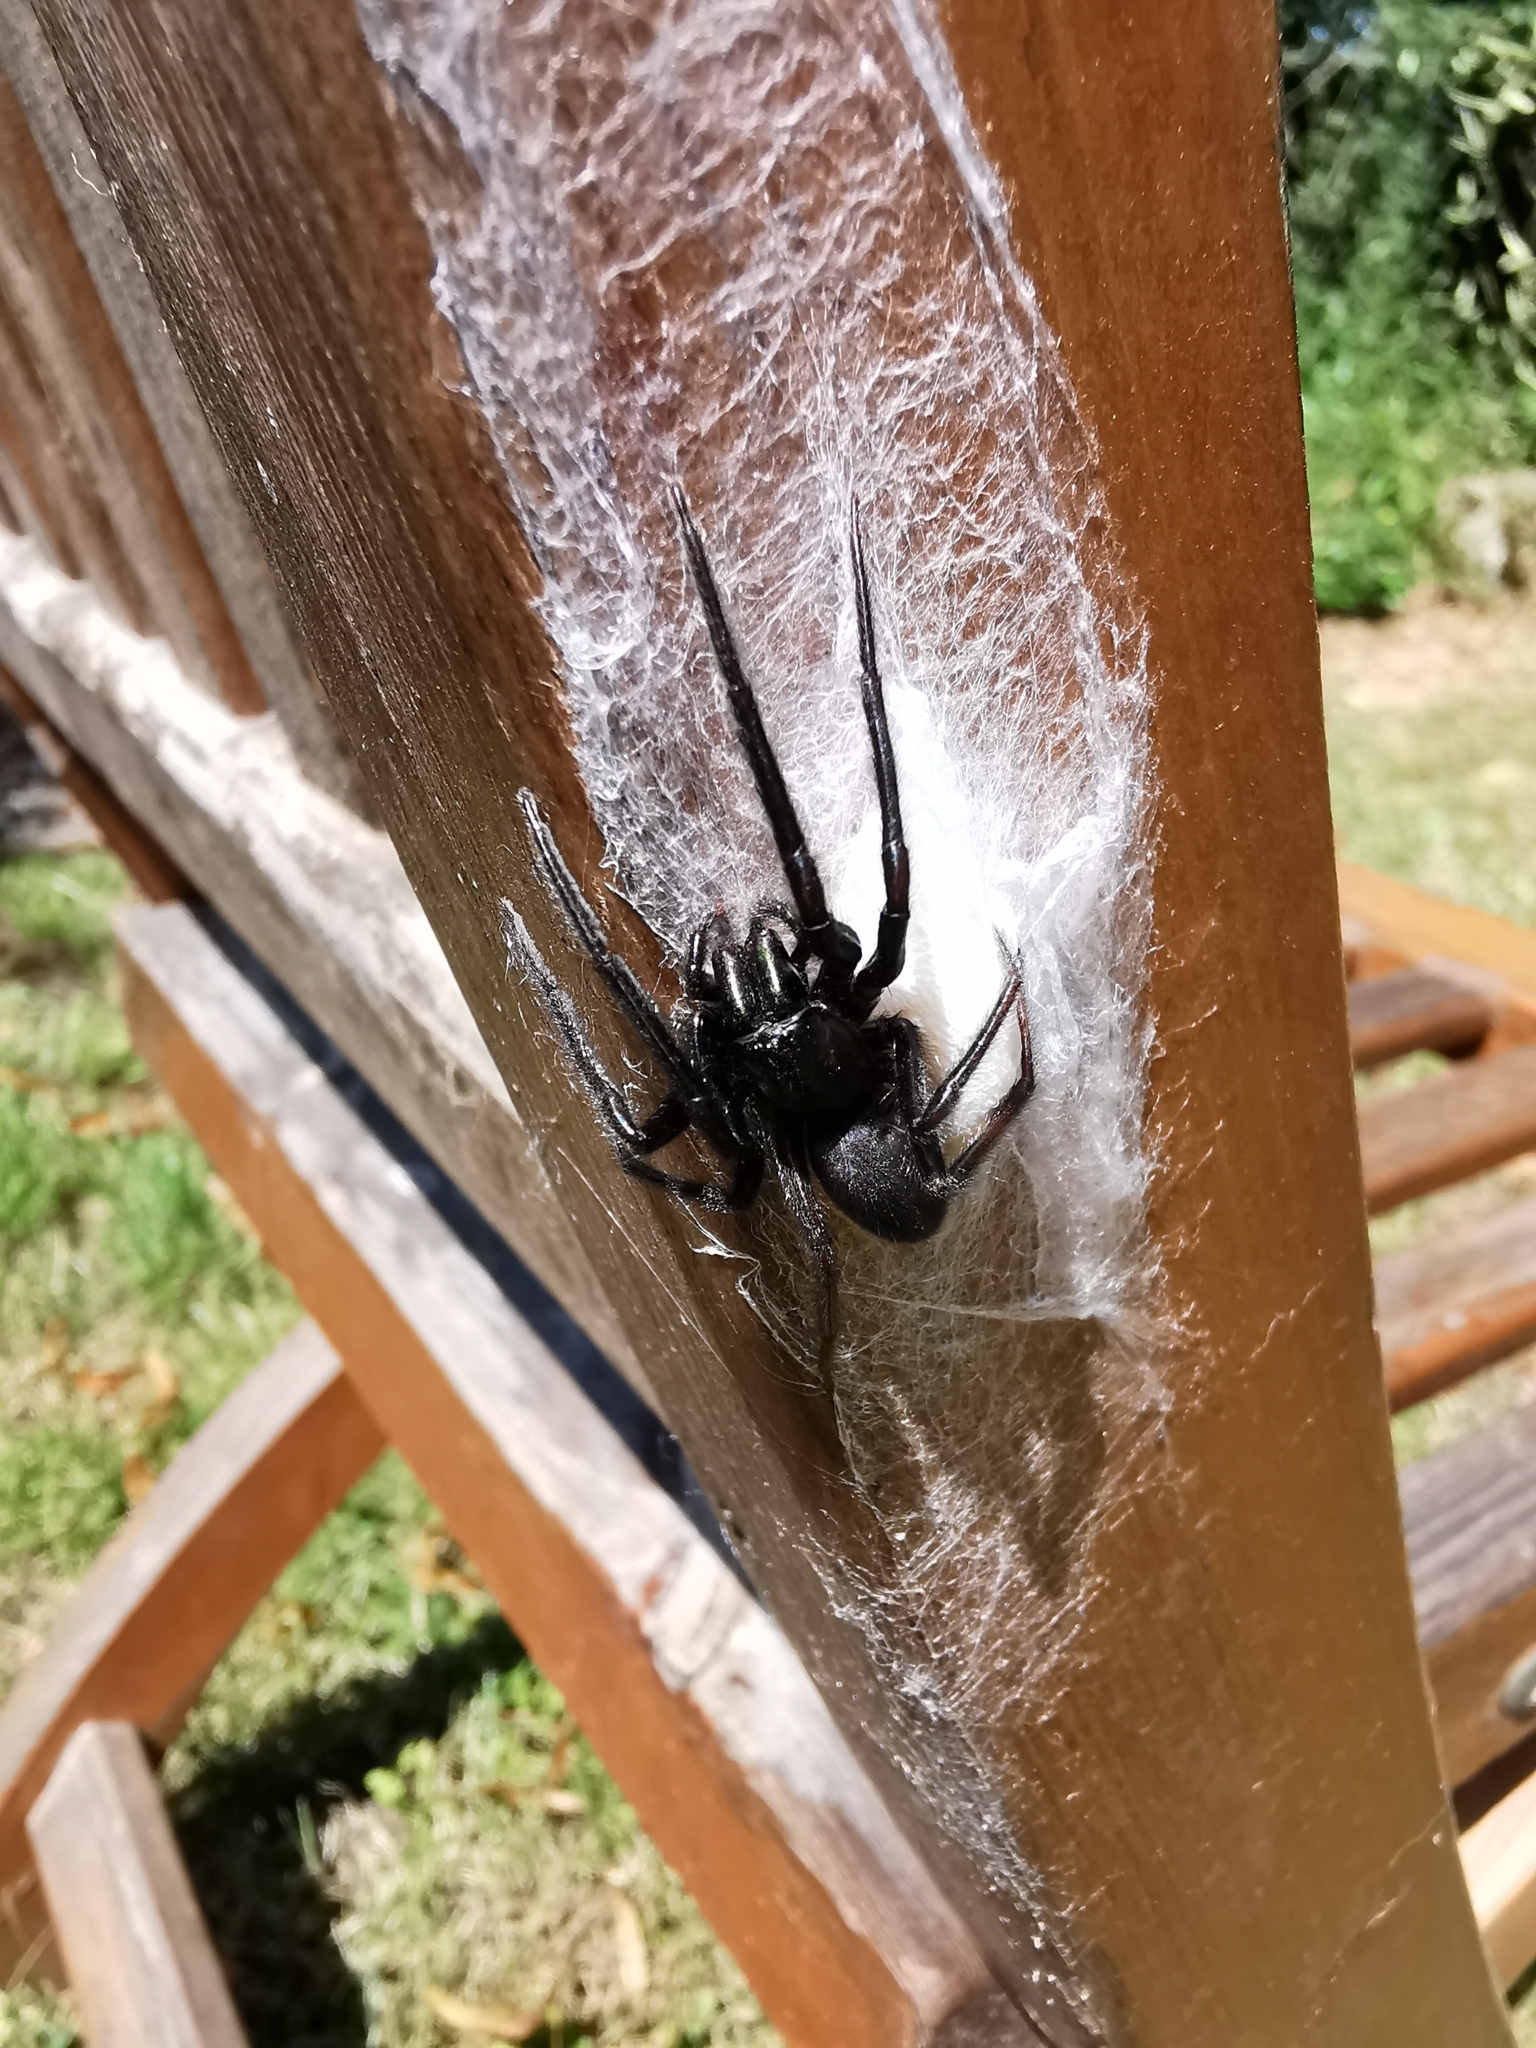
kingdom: Animalia
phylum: Arthropoda
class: Arachnida
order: Araneae
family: Segestriidae
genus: Segestria
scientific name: Segestria florentina
